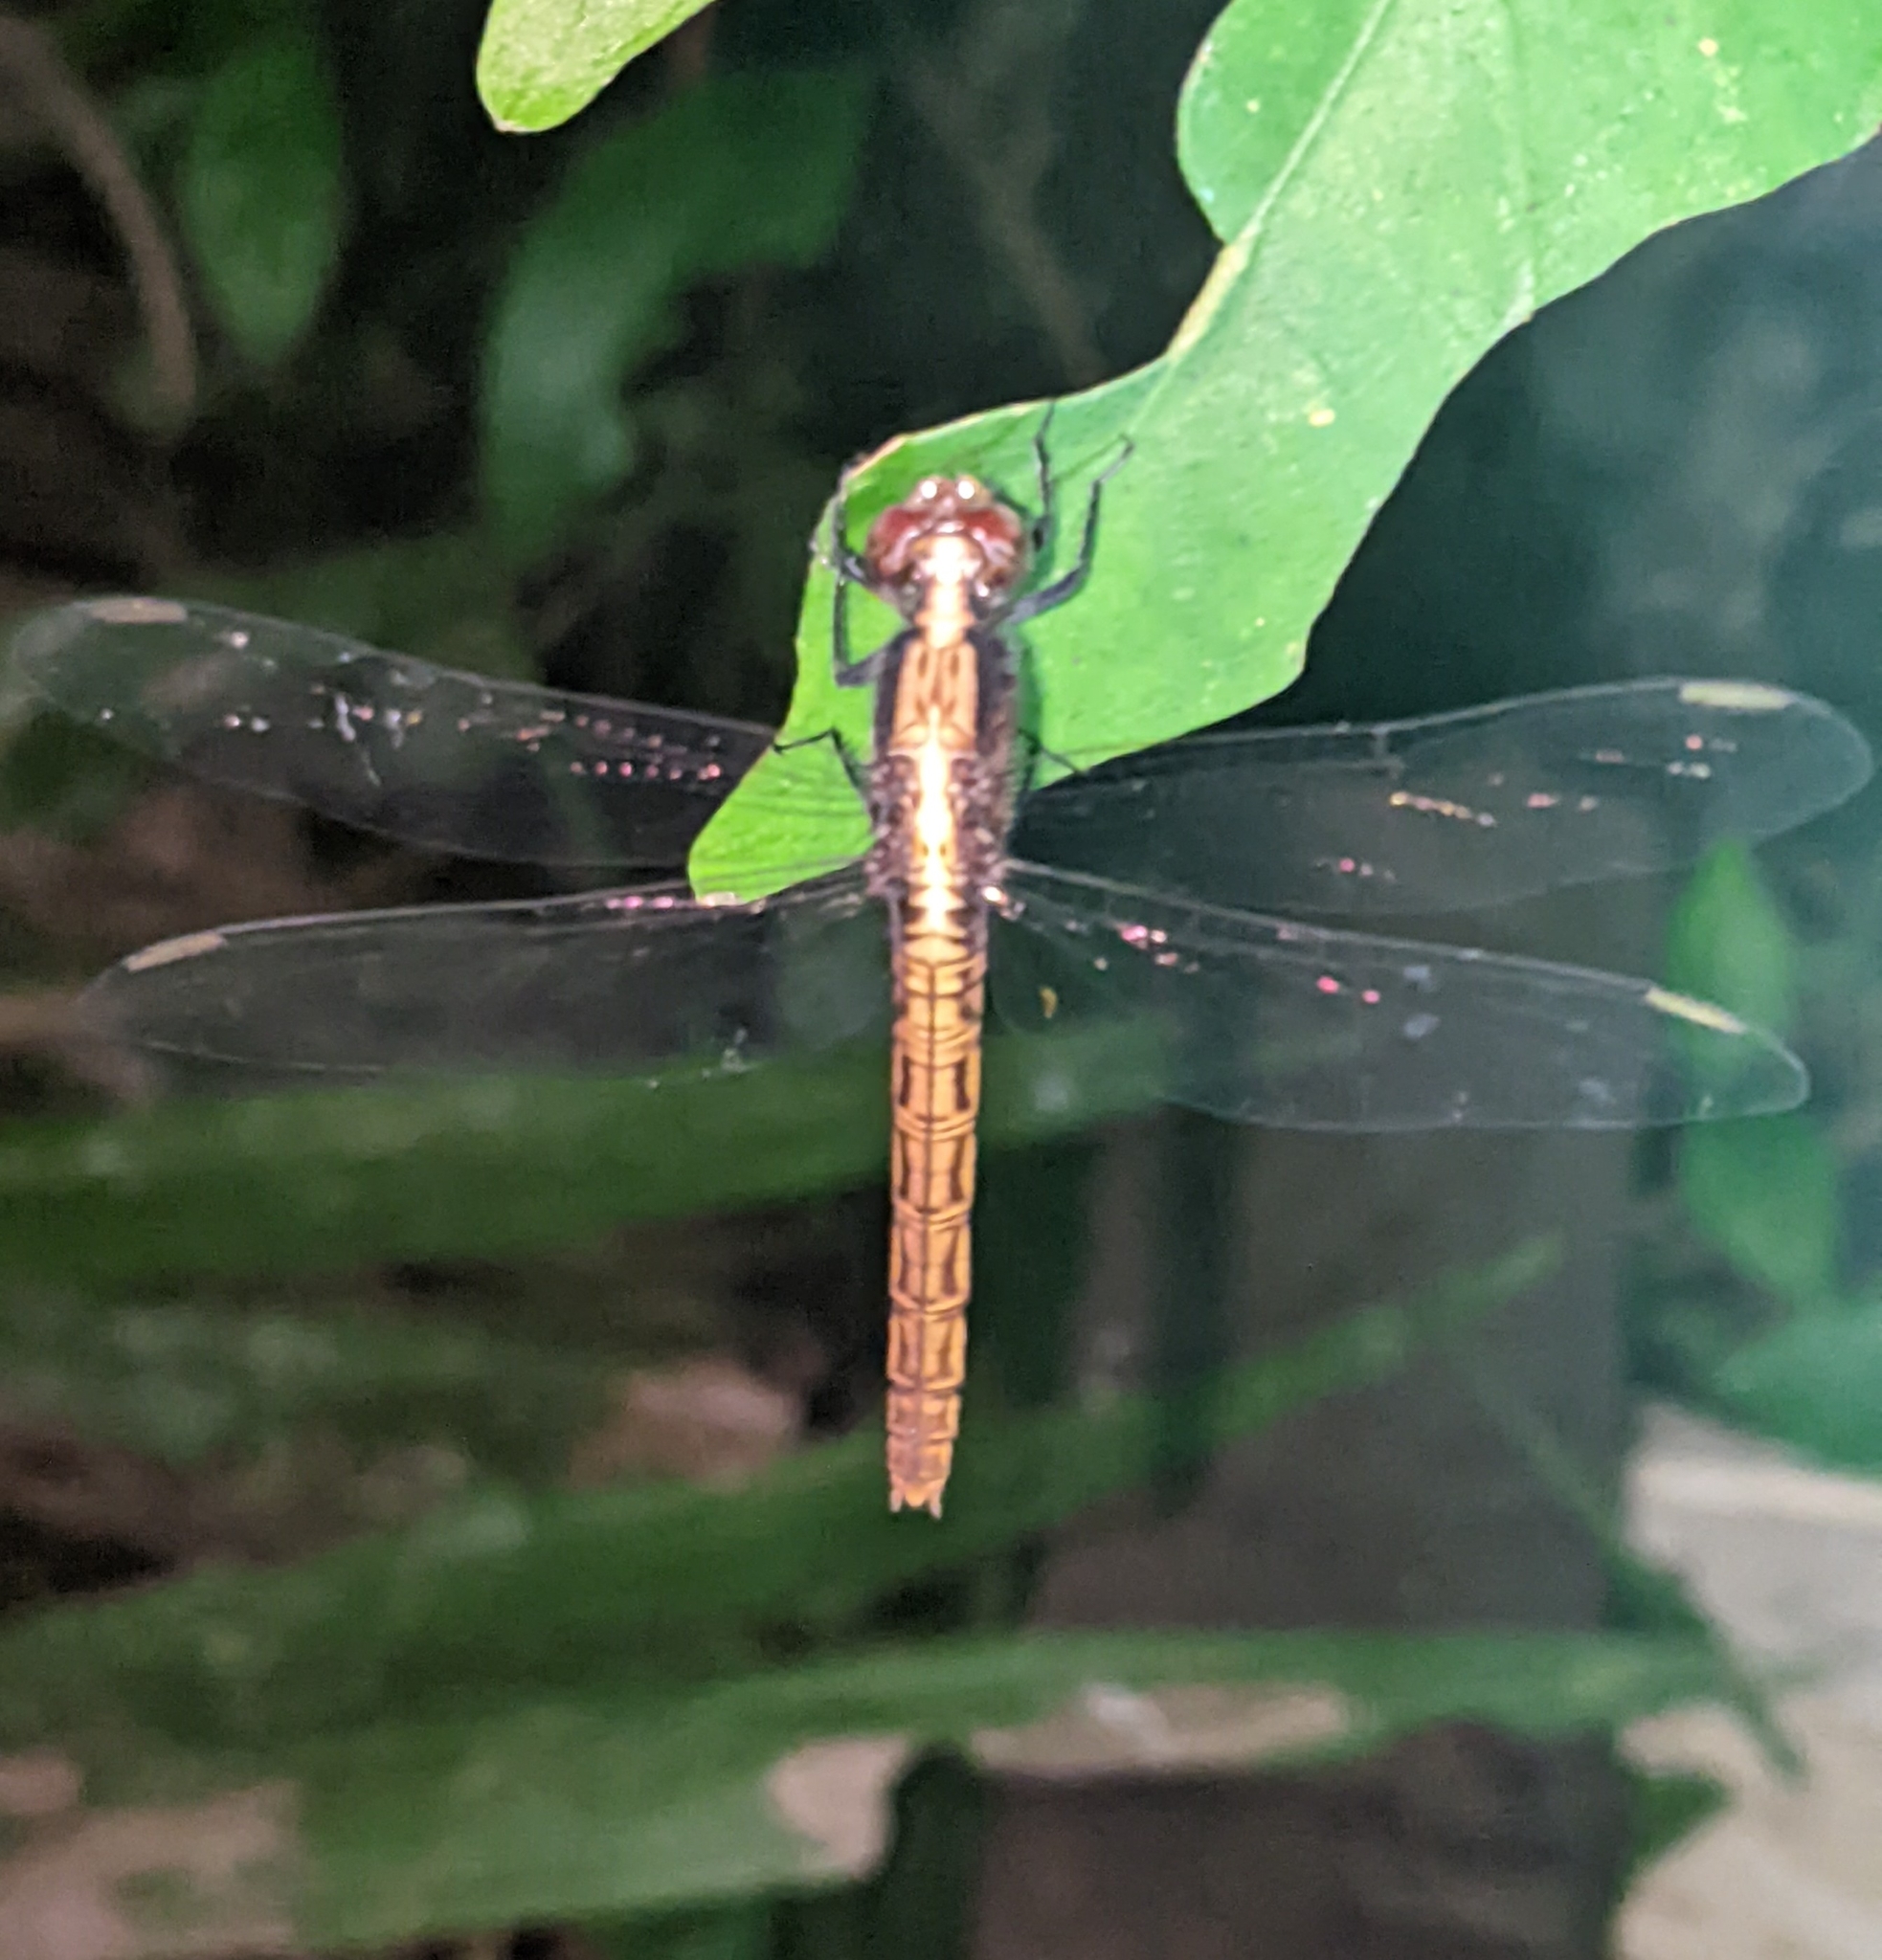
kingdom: Animalia
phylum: Arthropoda
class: Insecta
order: Odonata
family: Libellulidae
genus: Erythemis
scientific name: Erythemis peruviana
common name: Flame-tailed pondhawk
